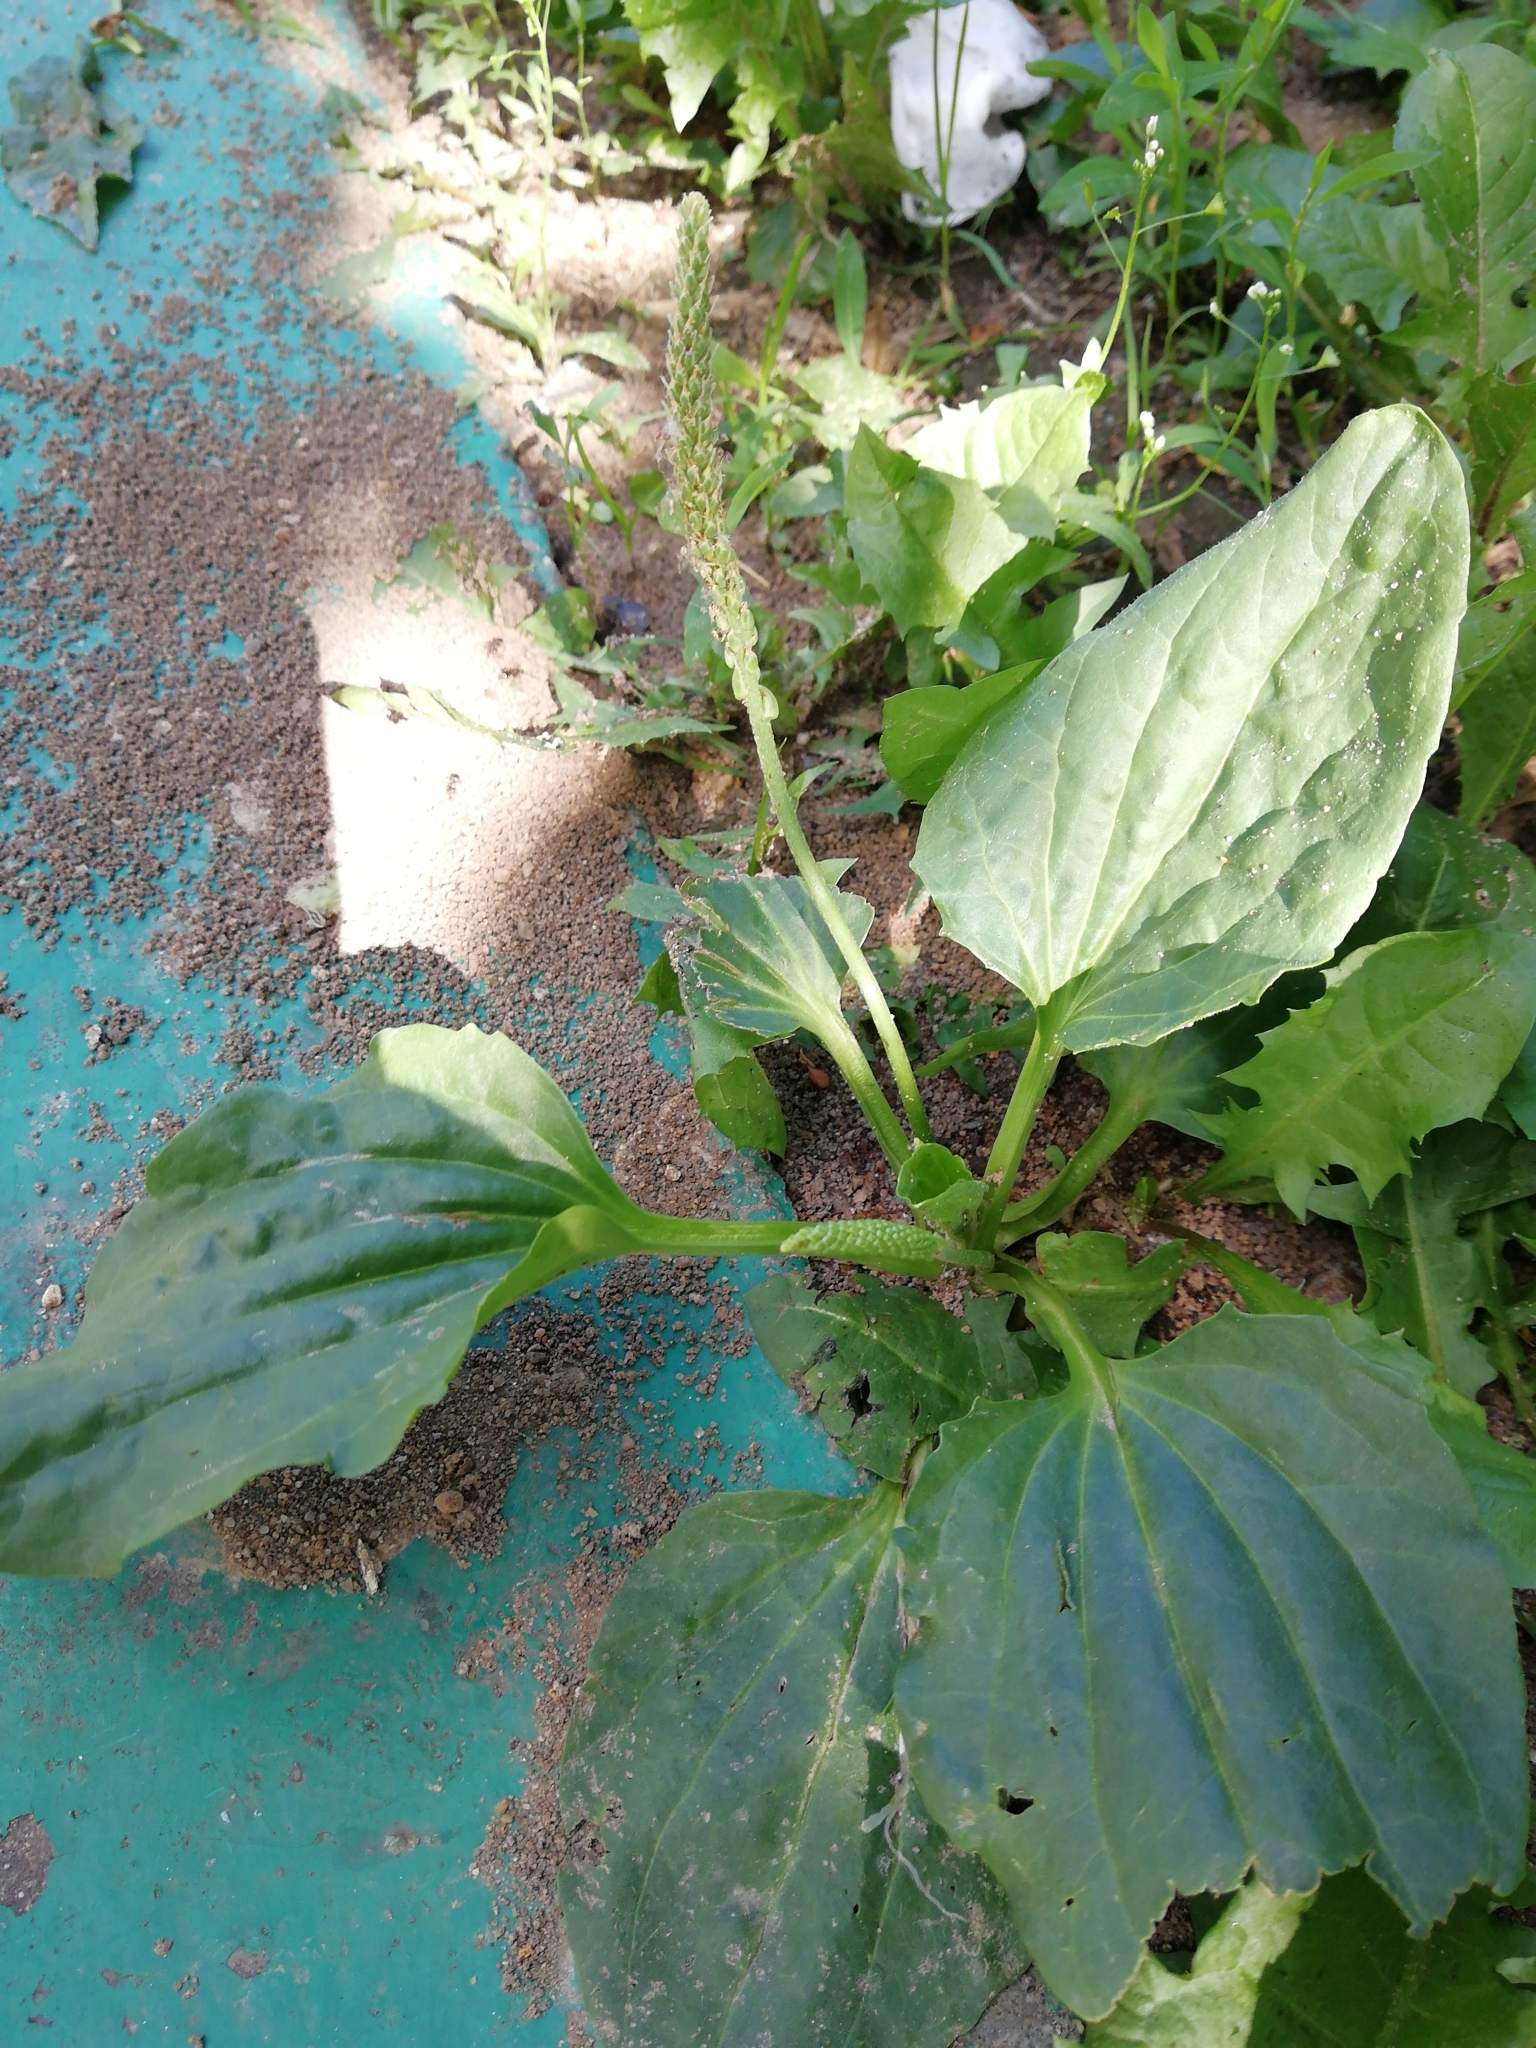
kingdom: Plantae
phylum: Tracheophyta
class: Magnoliopsida
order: Lamiales
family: Plantaginaceae
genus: Plantago
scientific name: Plantago major
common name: Common plantain
